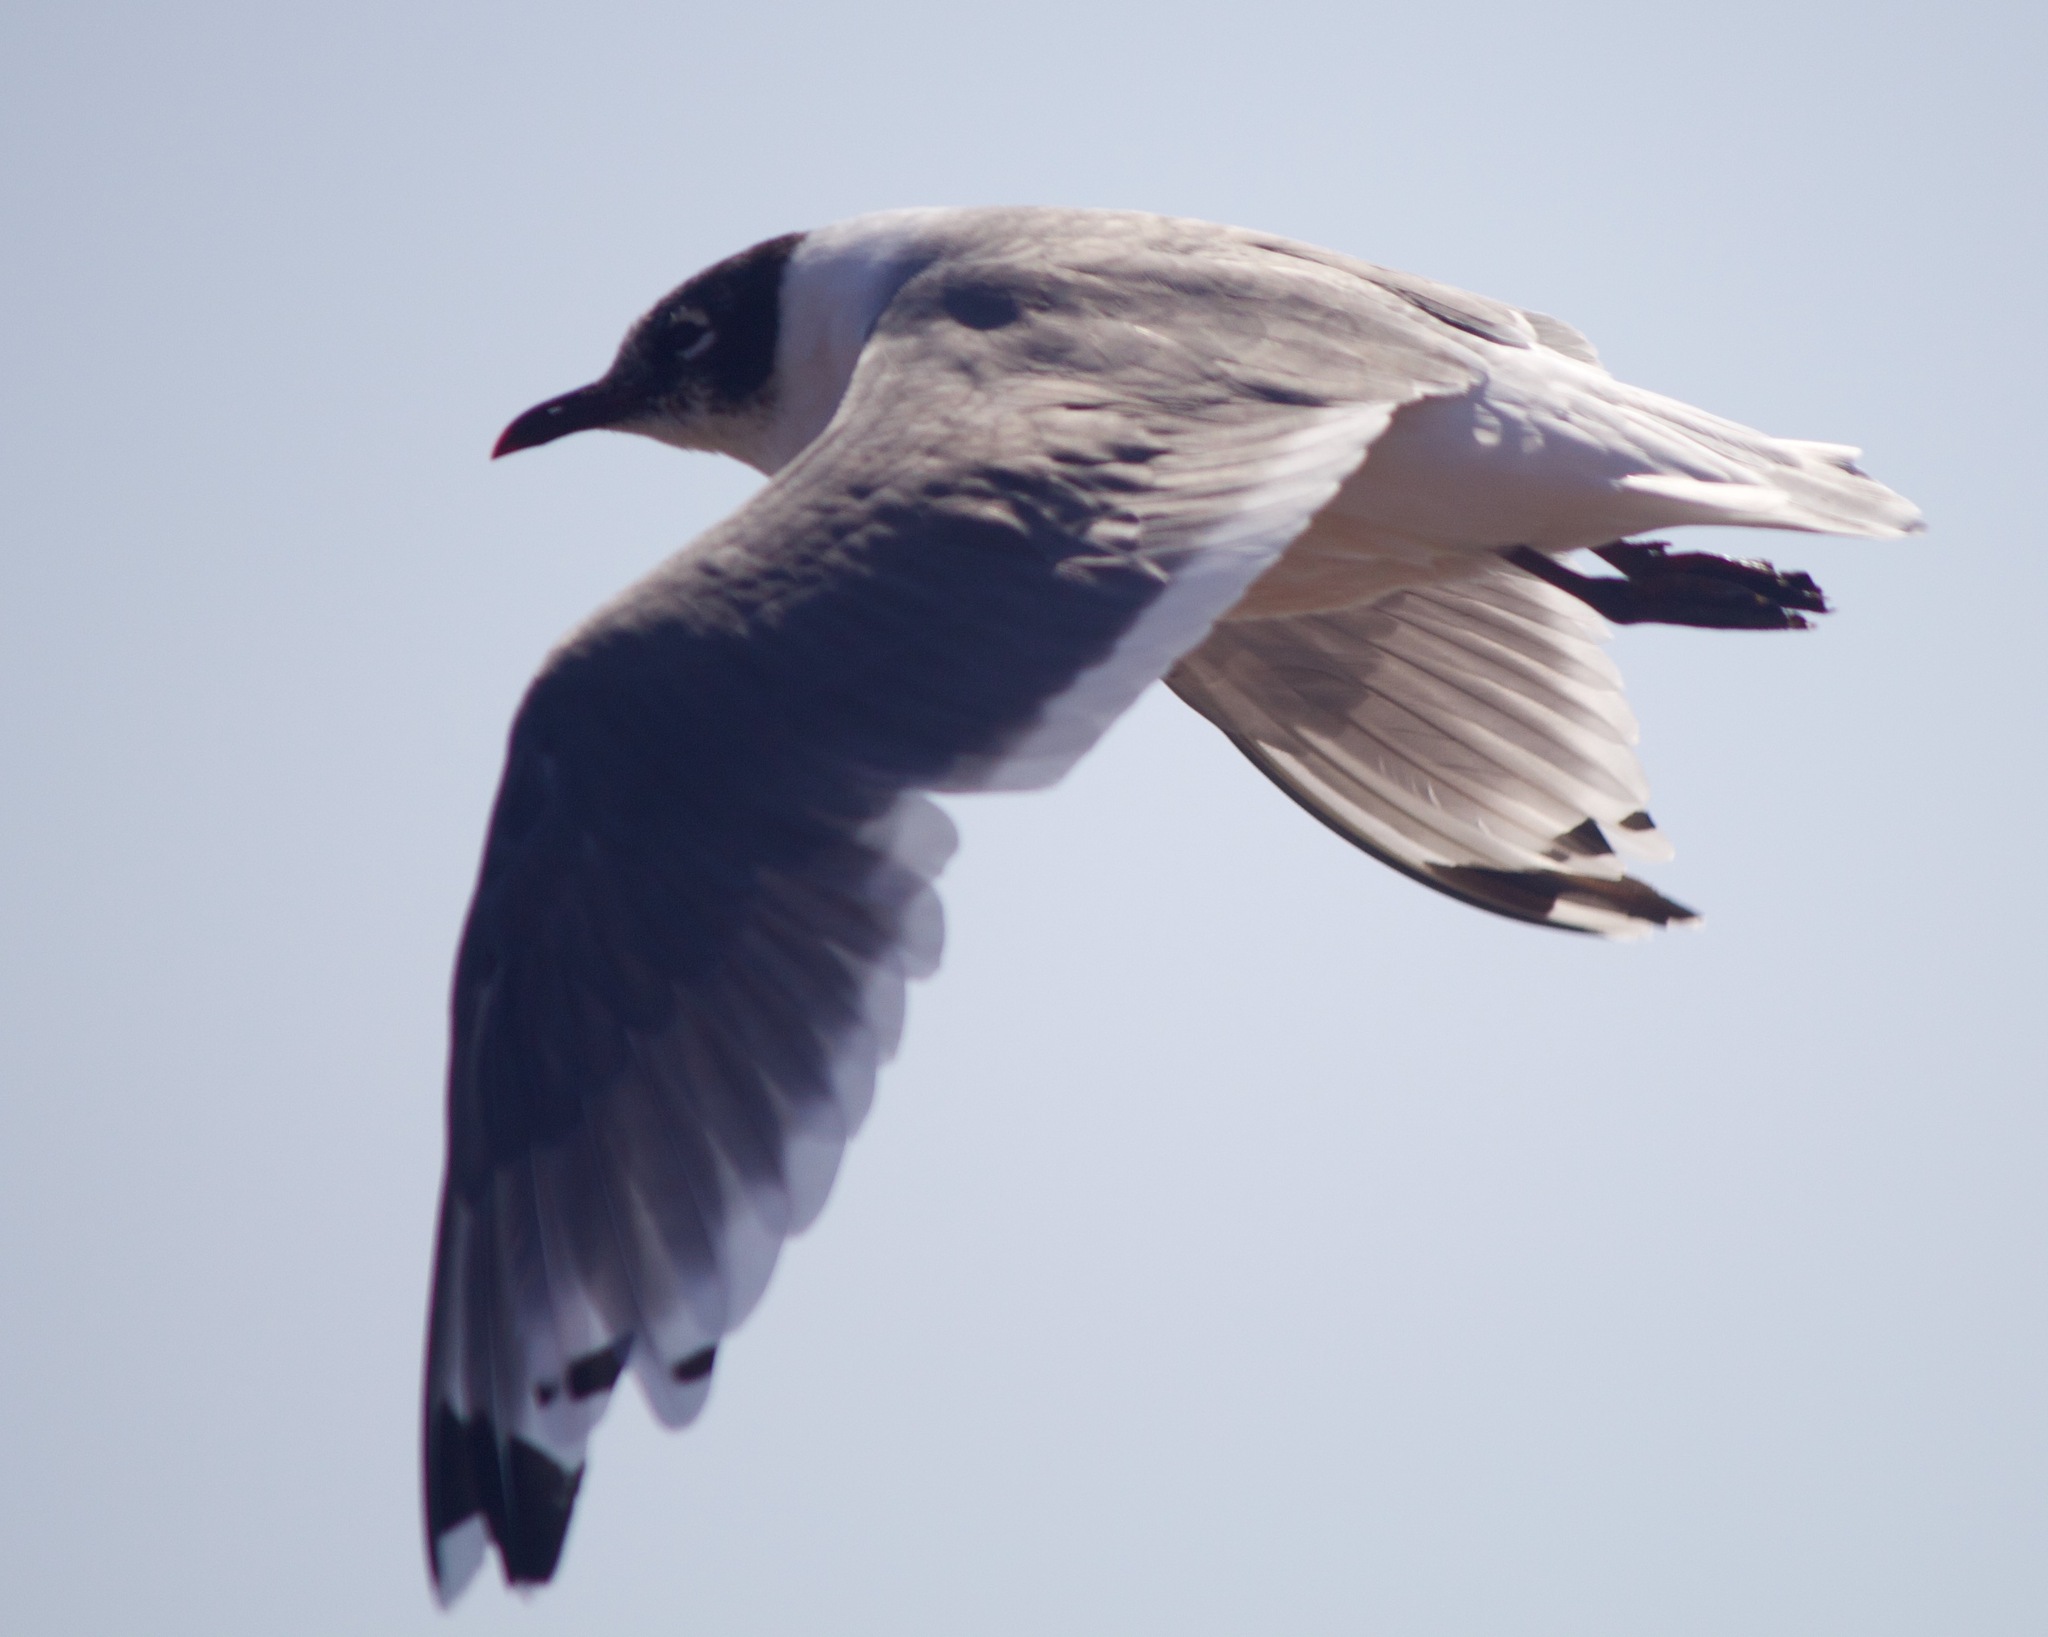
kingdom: Animalia
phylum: Chordata
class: Aves
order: Charadriiformes
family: Laridae
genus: Leucophaeus
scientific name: Leucophaeus pipixcan
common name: Franklin's gull
